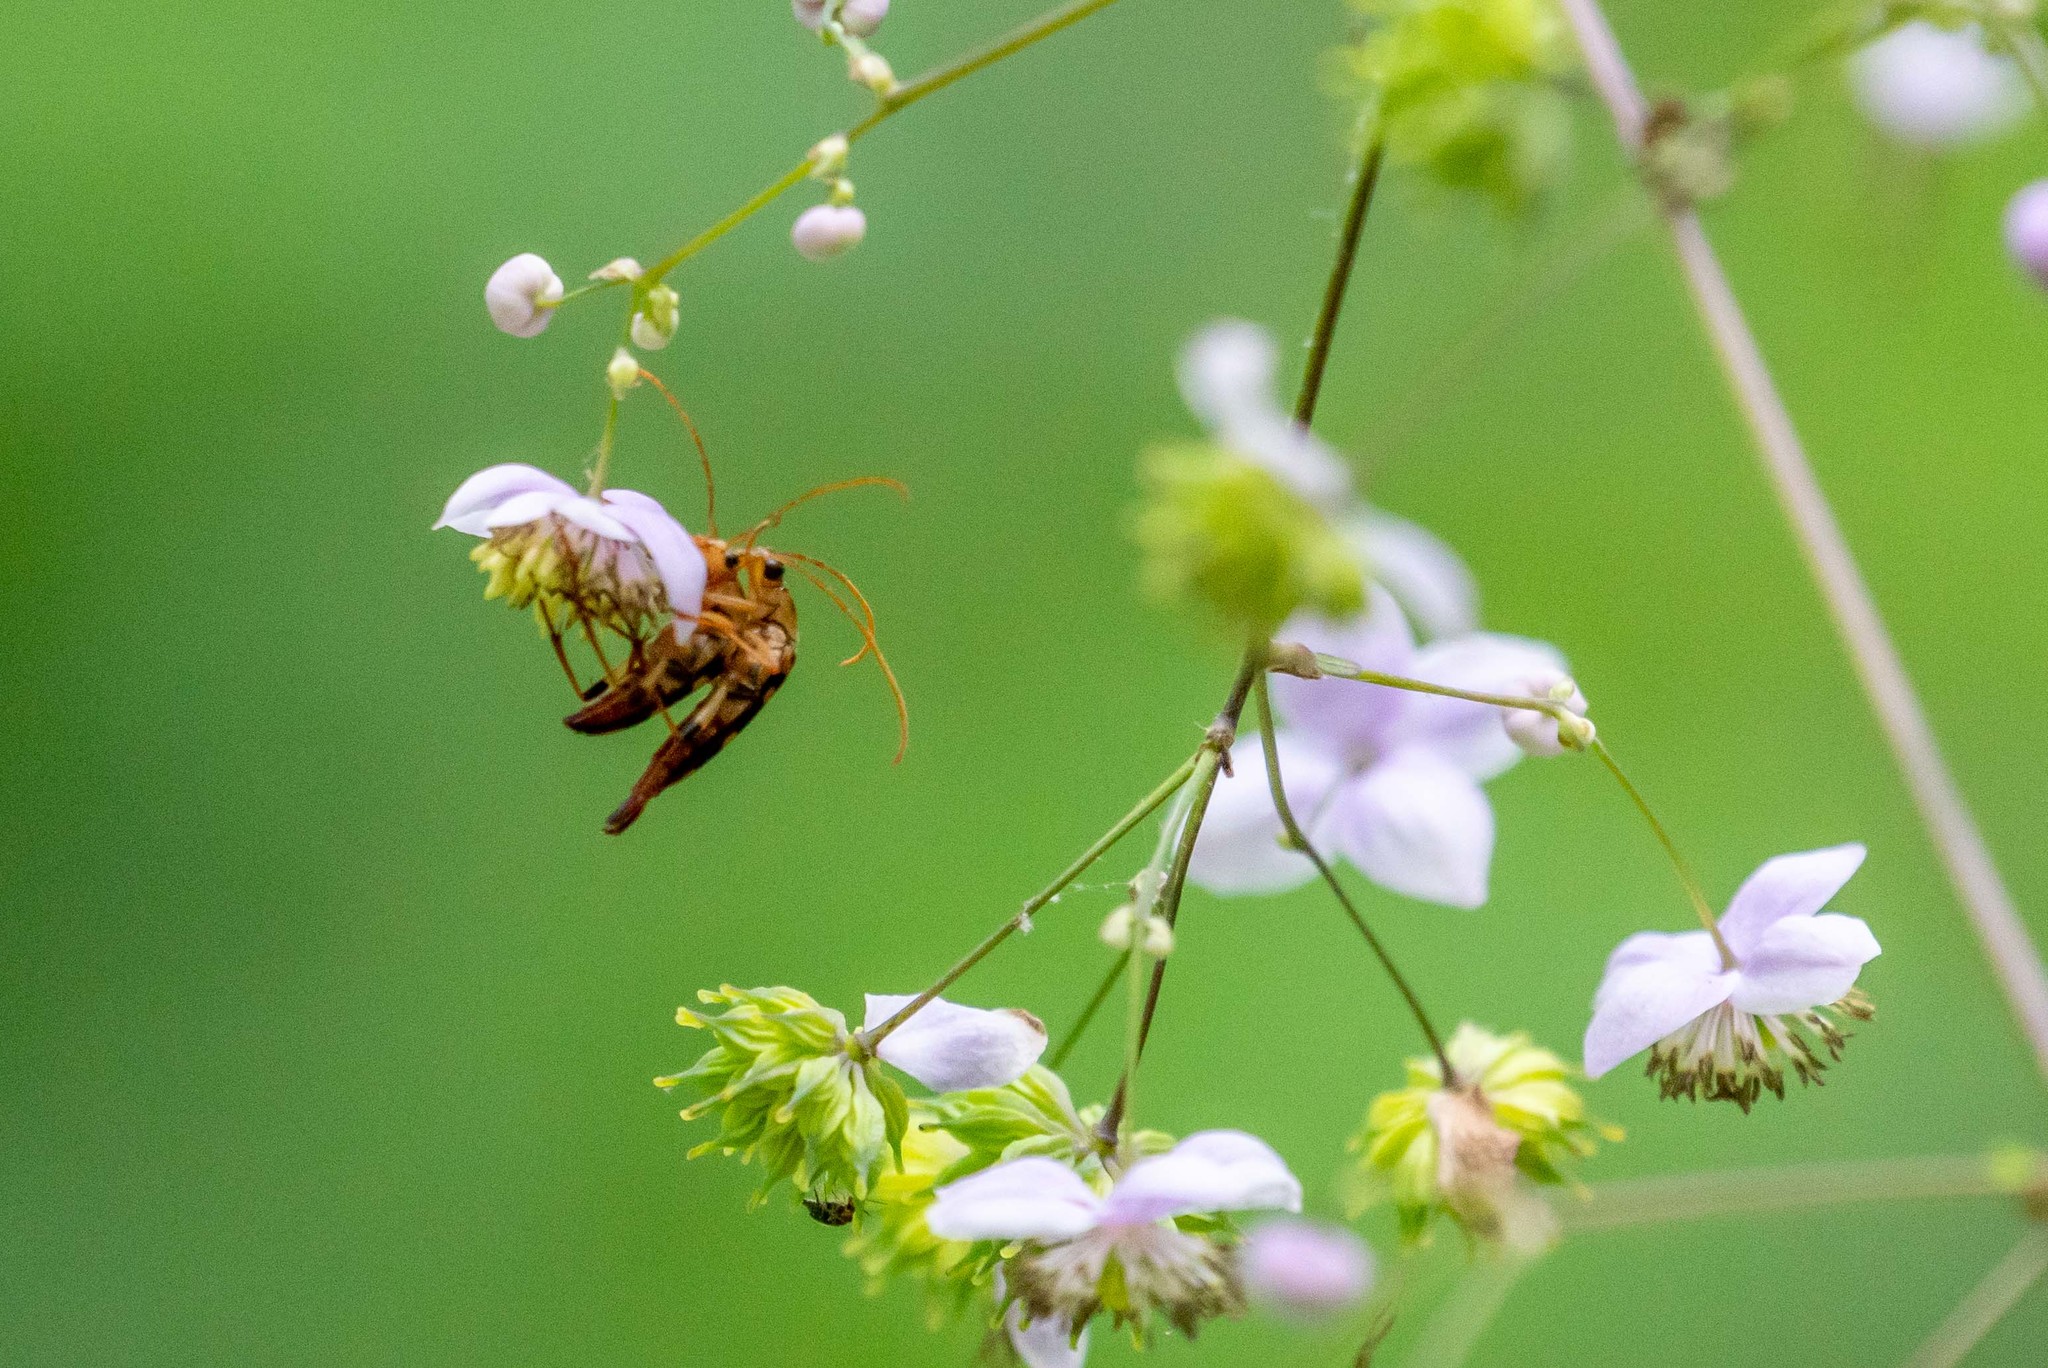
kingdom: Animalia
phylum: Arthropoda
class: Insecta
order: Coleoptera
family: Cerambycidae
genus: Strangalia
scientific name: Strangalia luteicornis
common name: Yellow-horned flower longhorn beetle
